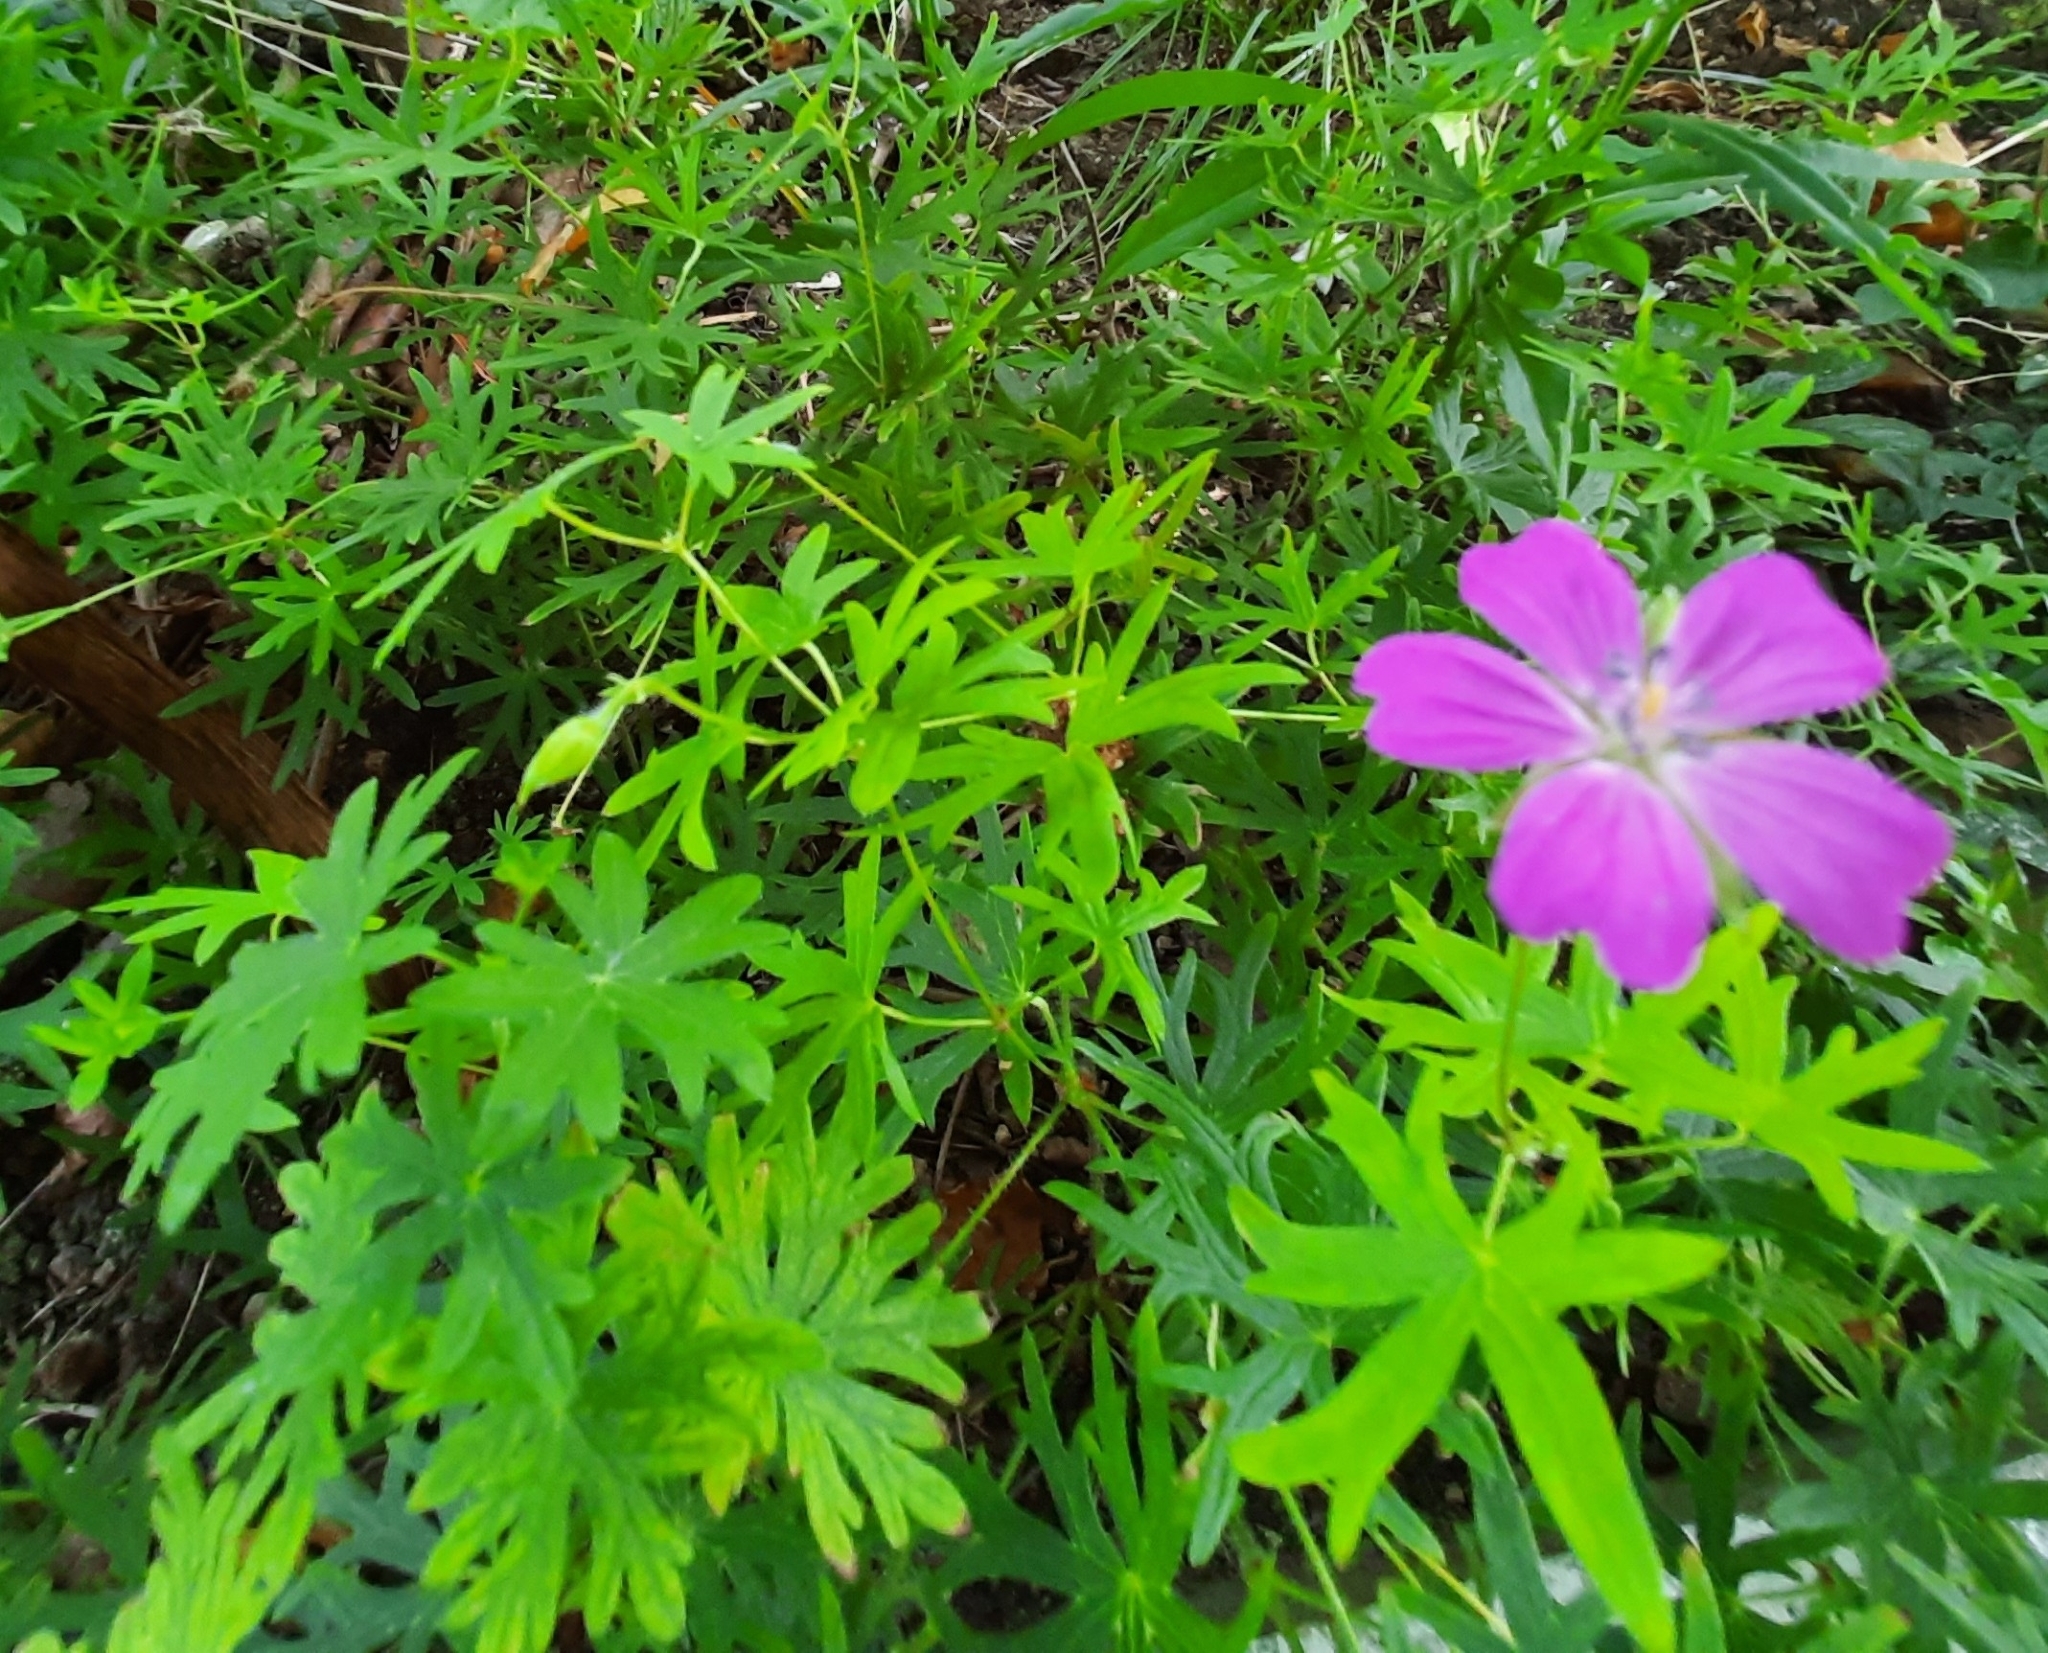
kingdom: Plantae
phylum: Tracheophyta
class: Magnoliopsida
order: Geraniales
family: Geraniaceae
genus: Geranium
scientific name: Geranium sanguineum
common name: Bloody crane's-bill
